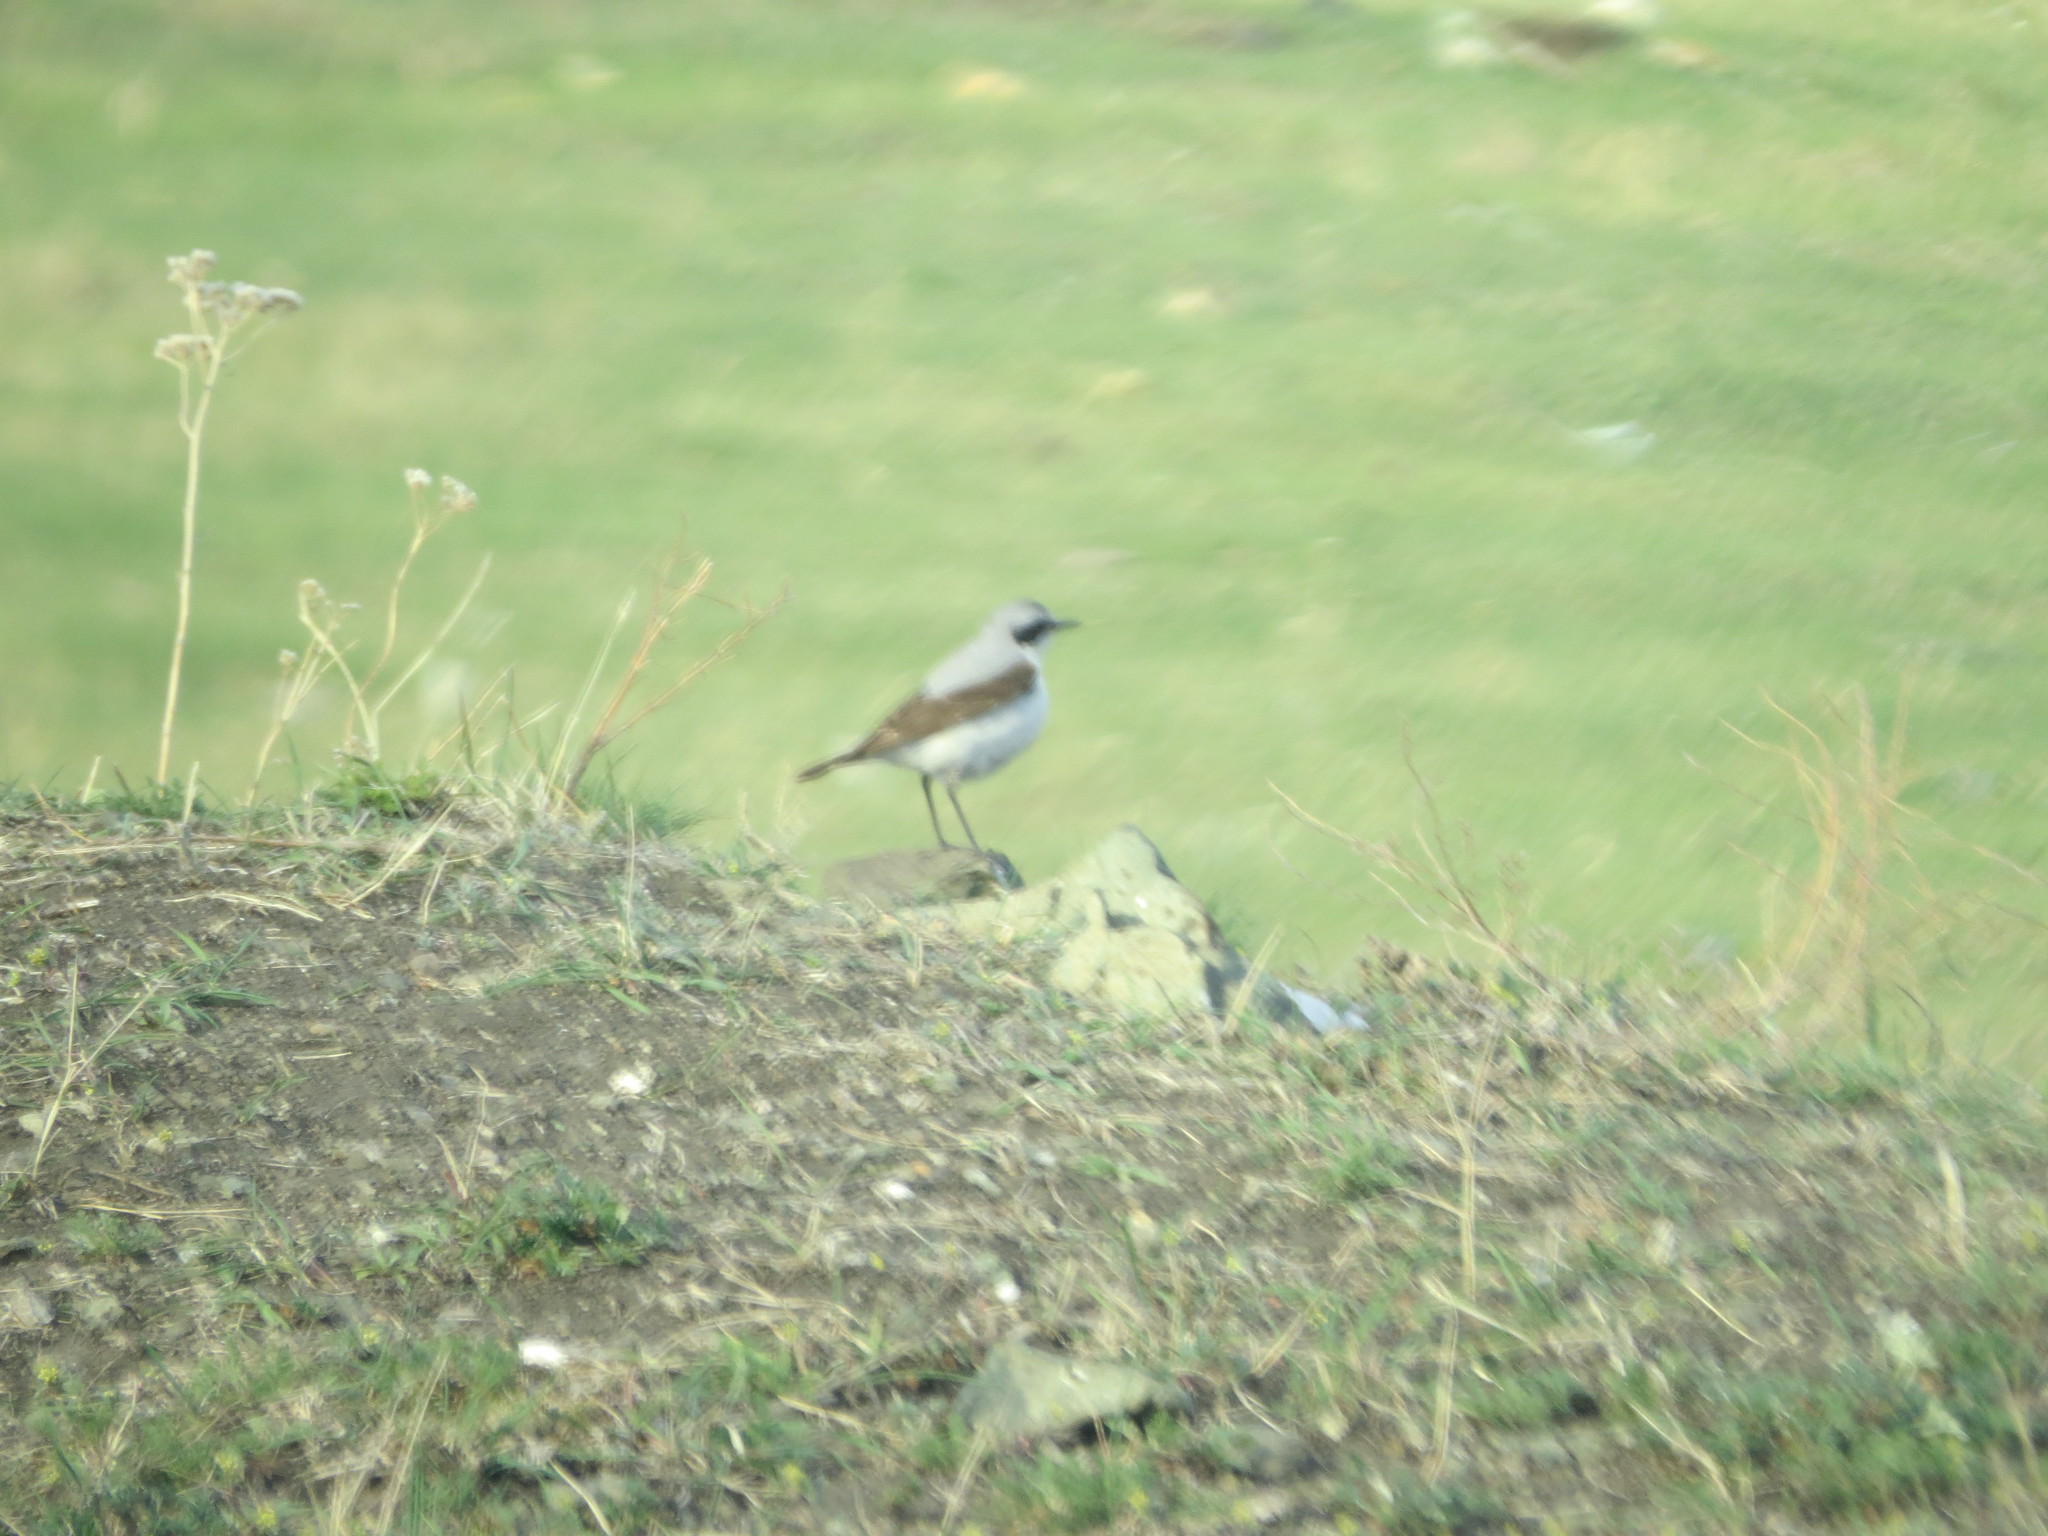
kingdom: Animalia
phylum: Chordata
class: Aves
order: Passeriformes
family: Muscicapidae
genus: Oenanthe
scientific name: Oenanthe oenanthe
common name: Northern wheatear
